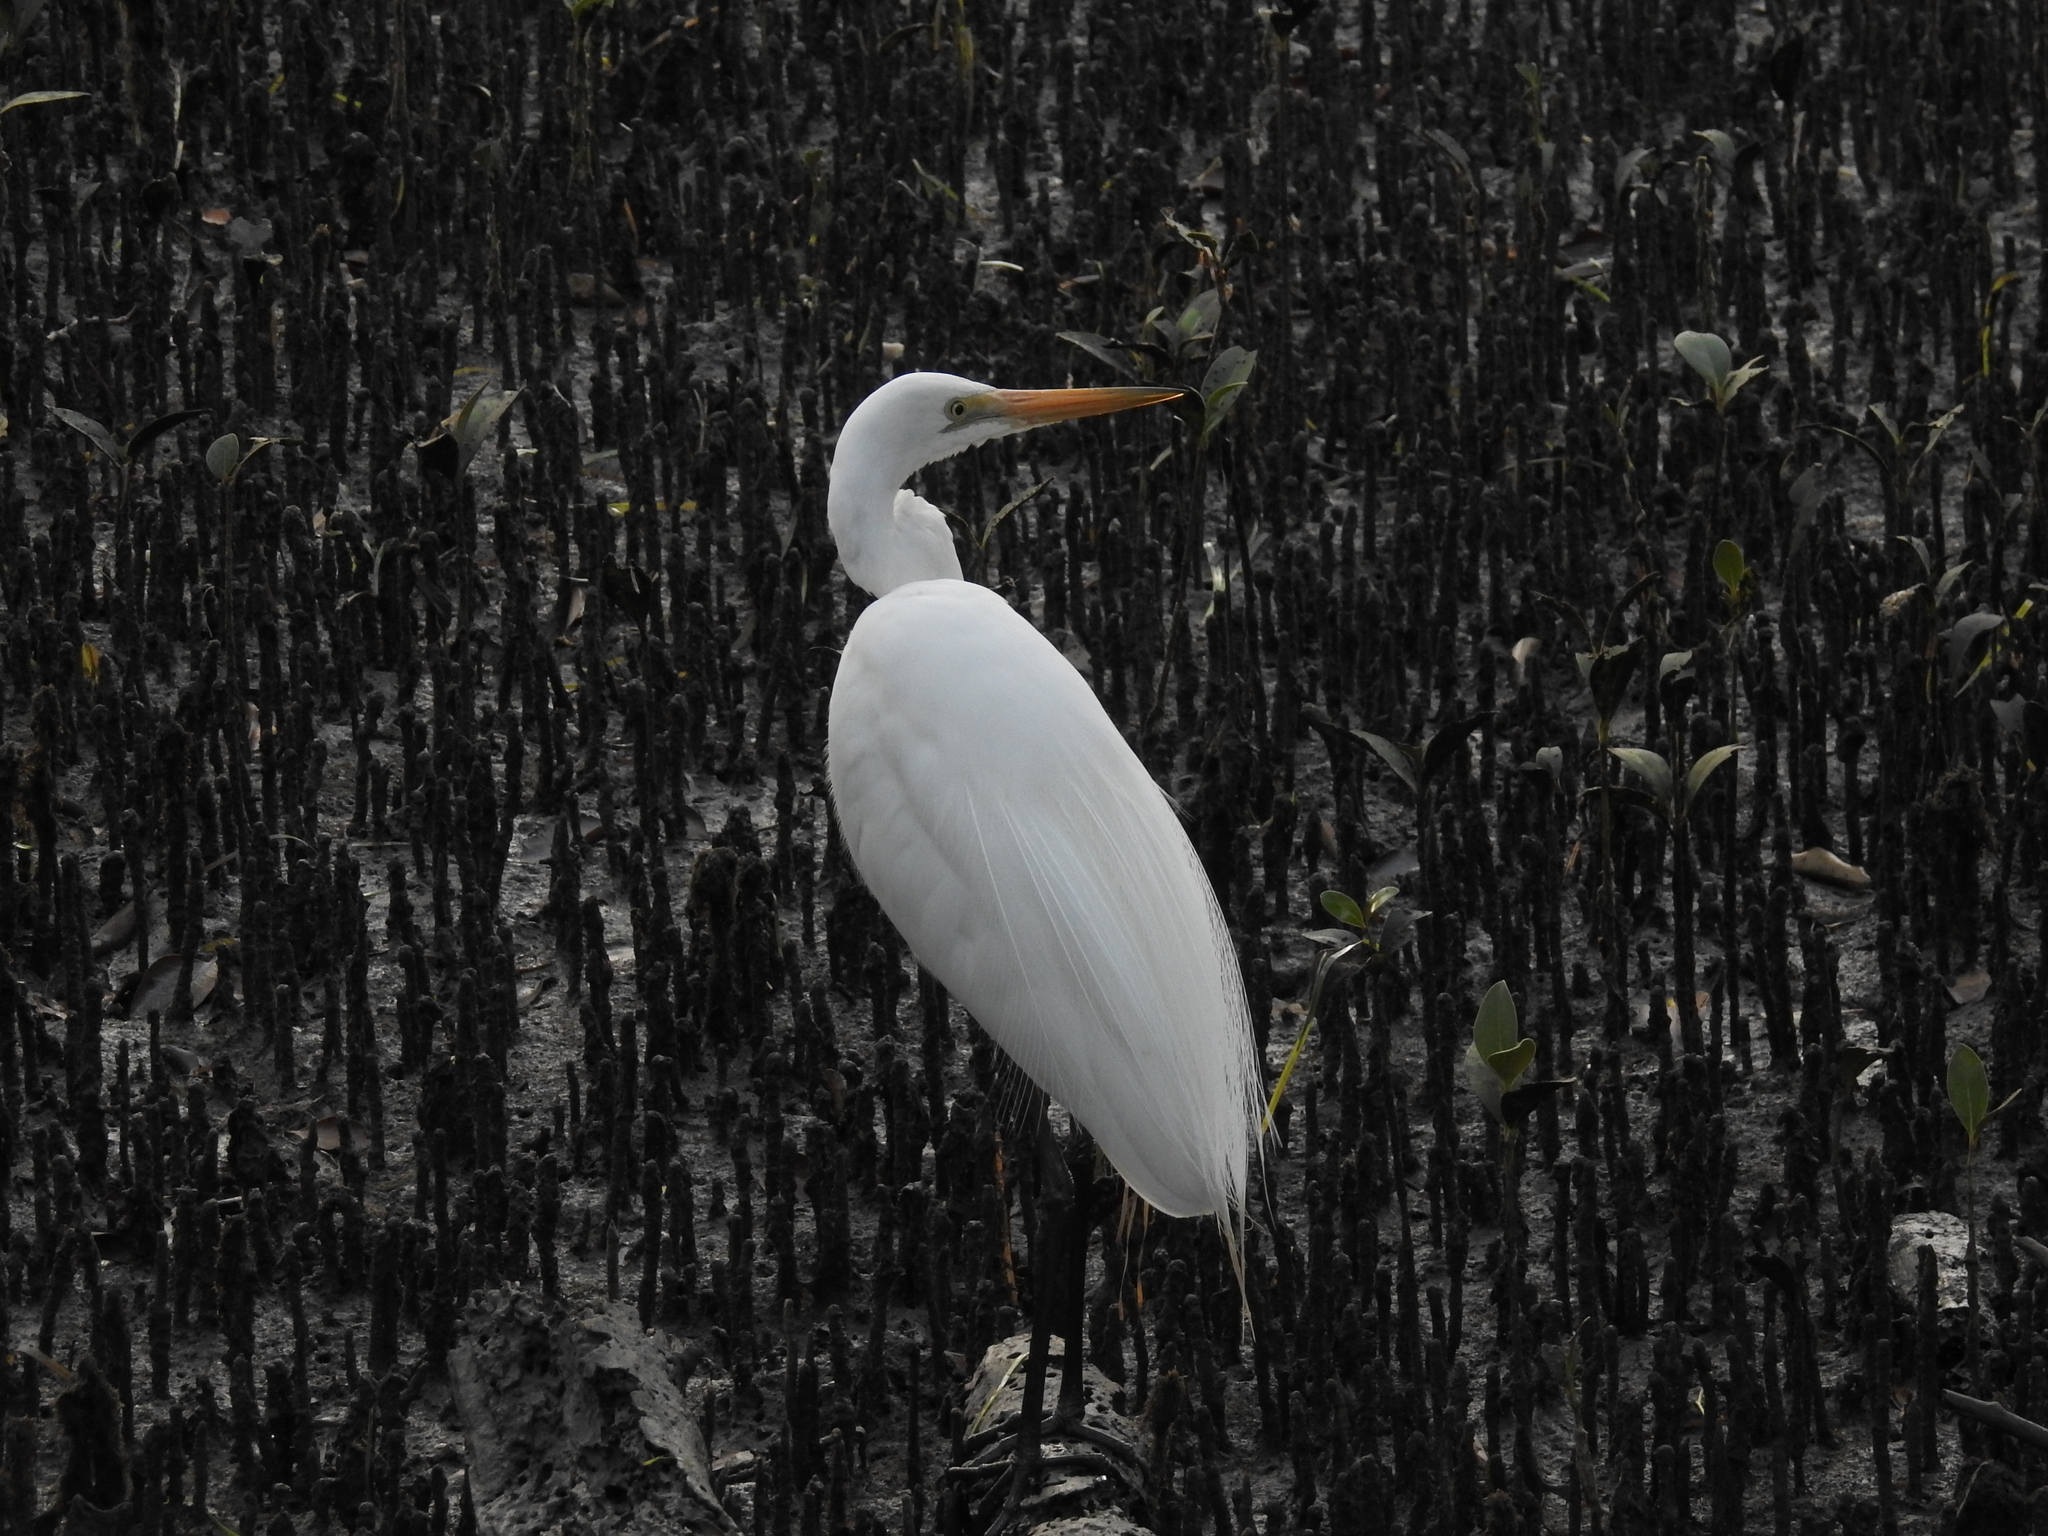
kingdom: Animalia
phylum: Chordata
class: Aves
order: Pelecaniformes
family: Ardeidae
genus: Ardea
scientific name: Ardea modesta
